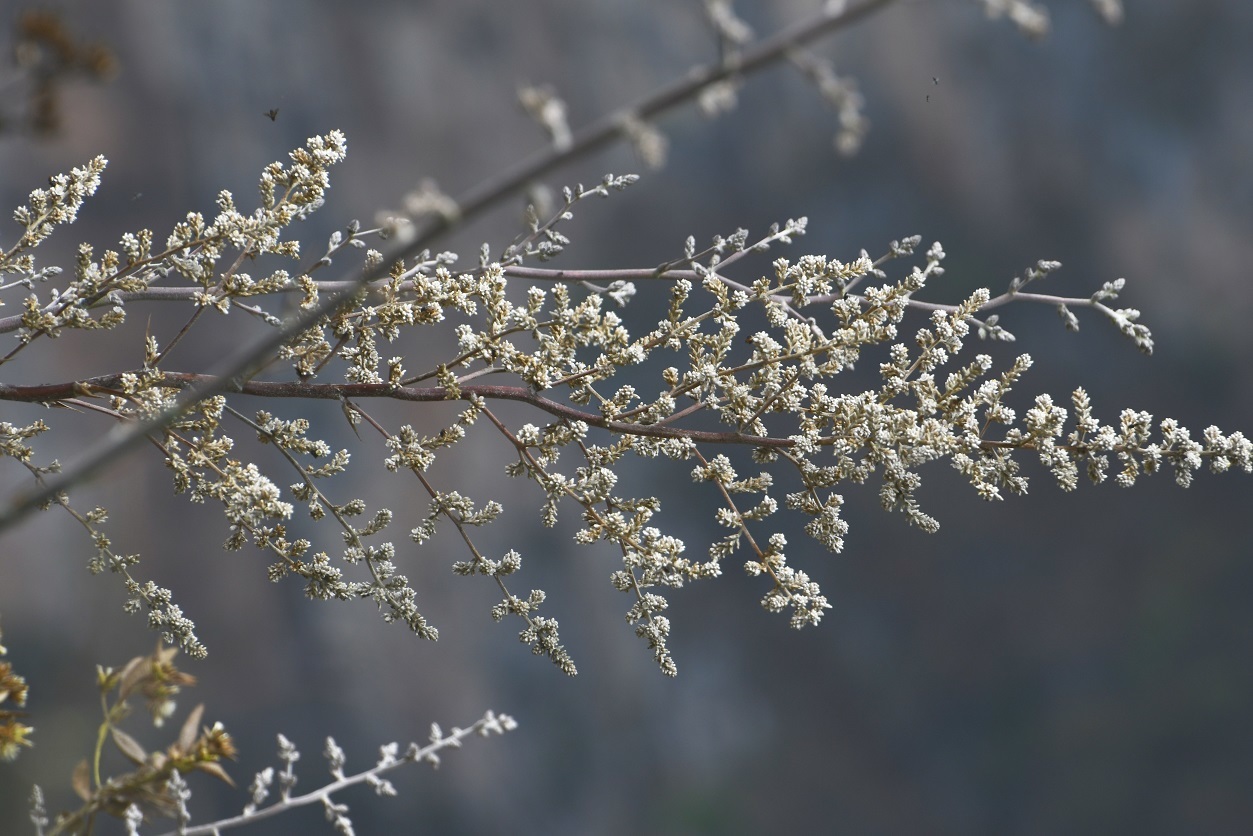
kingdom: Plantae
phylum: Tracheophyta
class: Liliopsida
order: Poales
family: Bromeliaceae
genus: Hechtia
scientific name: Hechtia glomerata
